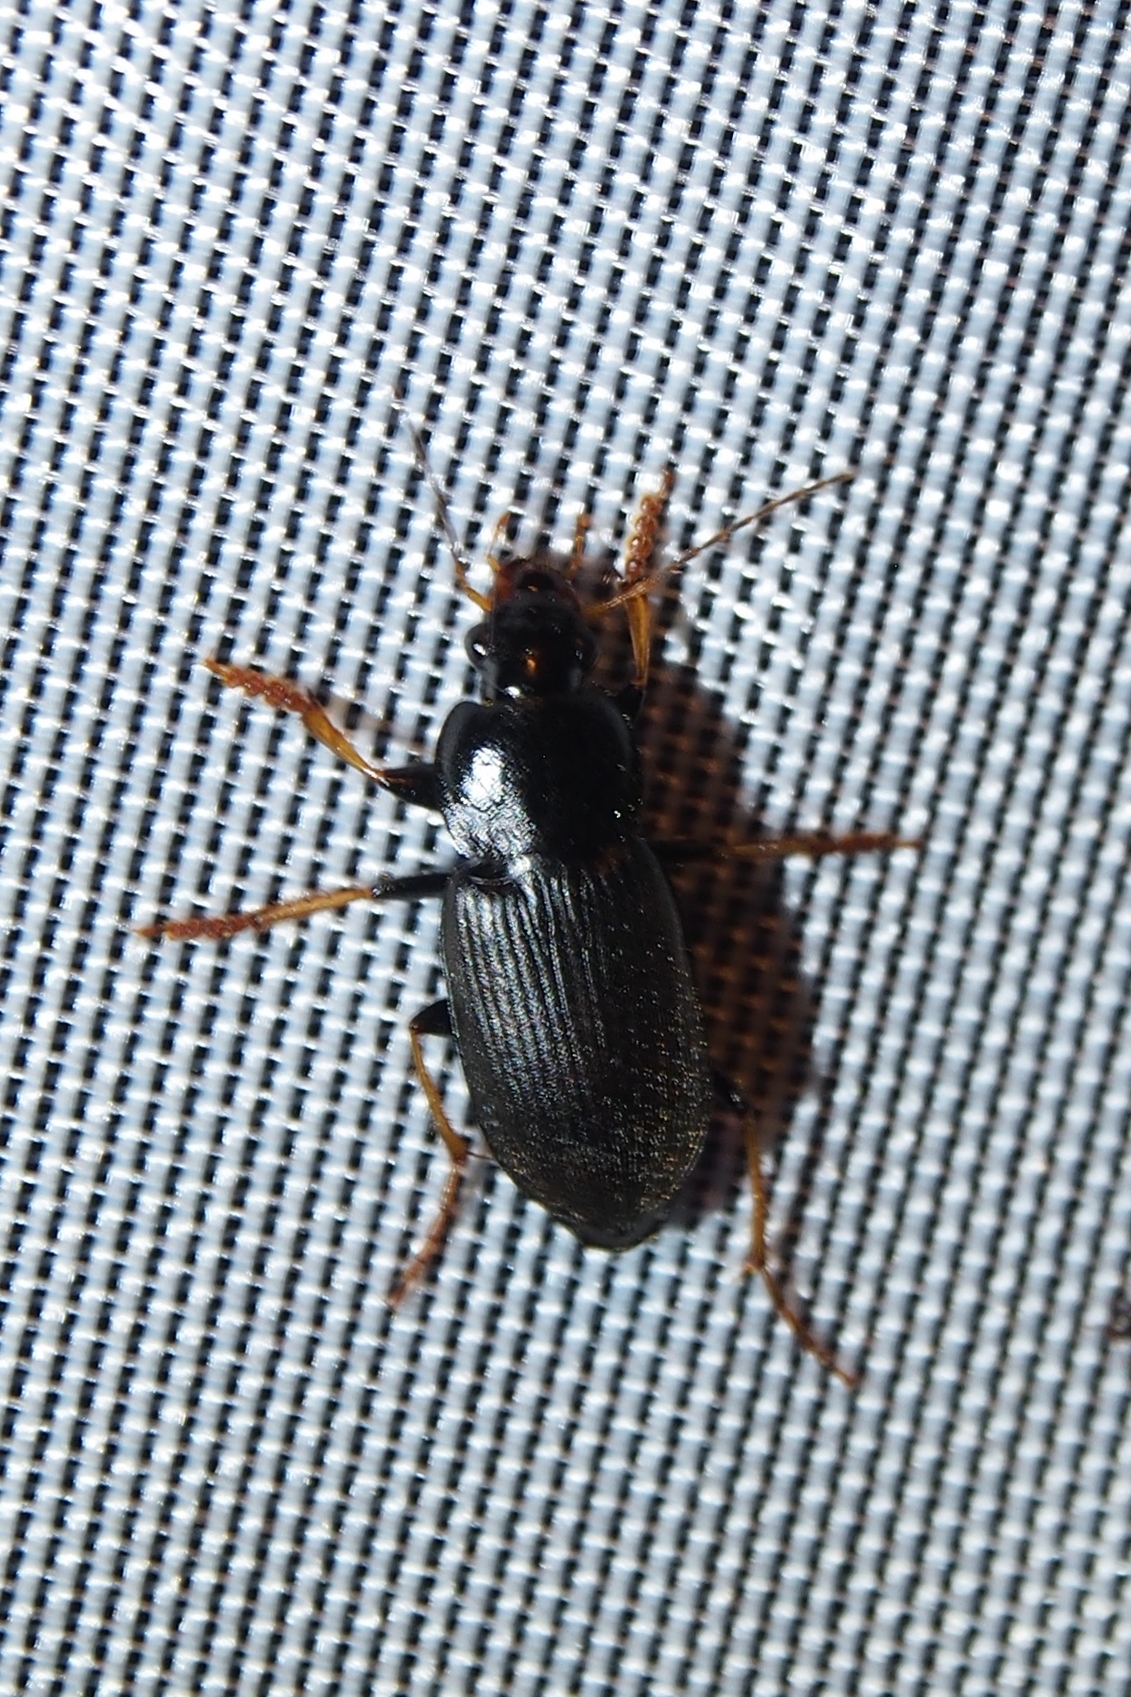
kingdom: Animalia
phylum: Arthropoda
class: Insecta
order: Coleoptera
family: Carabidae
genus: Amphasia
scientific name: Amphasia sericea
